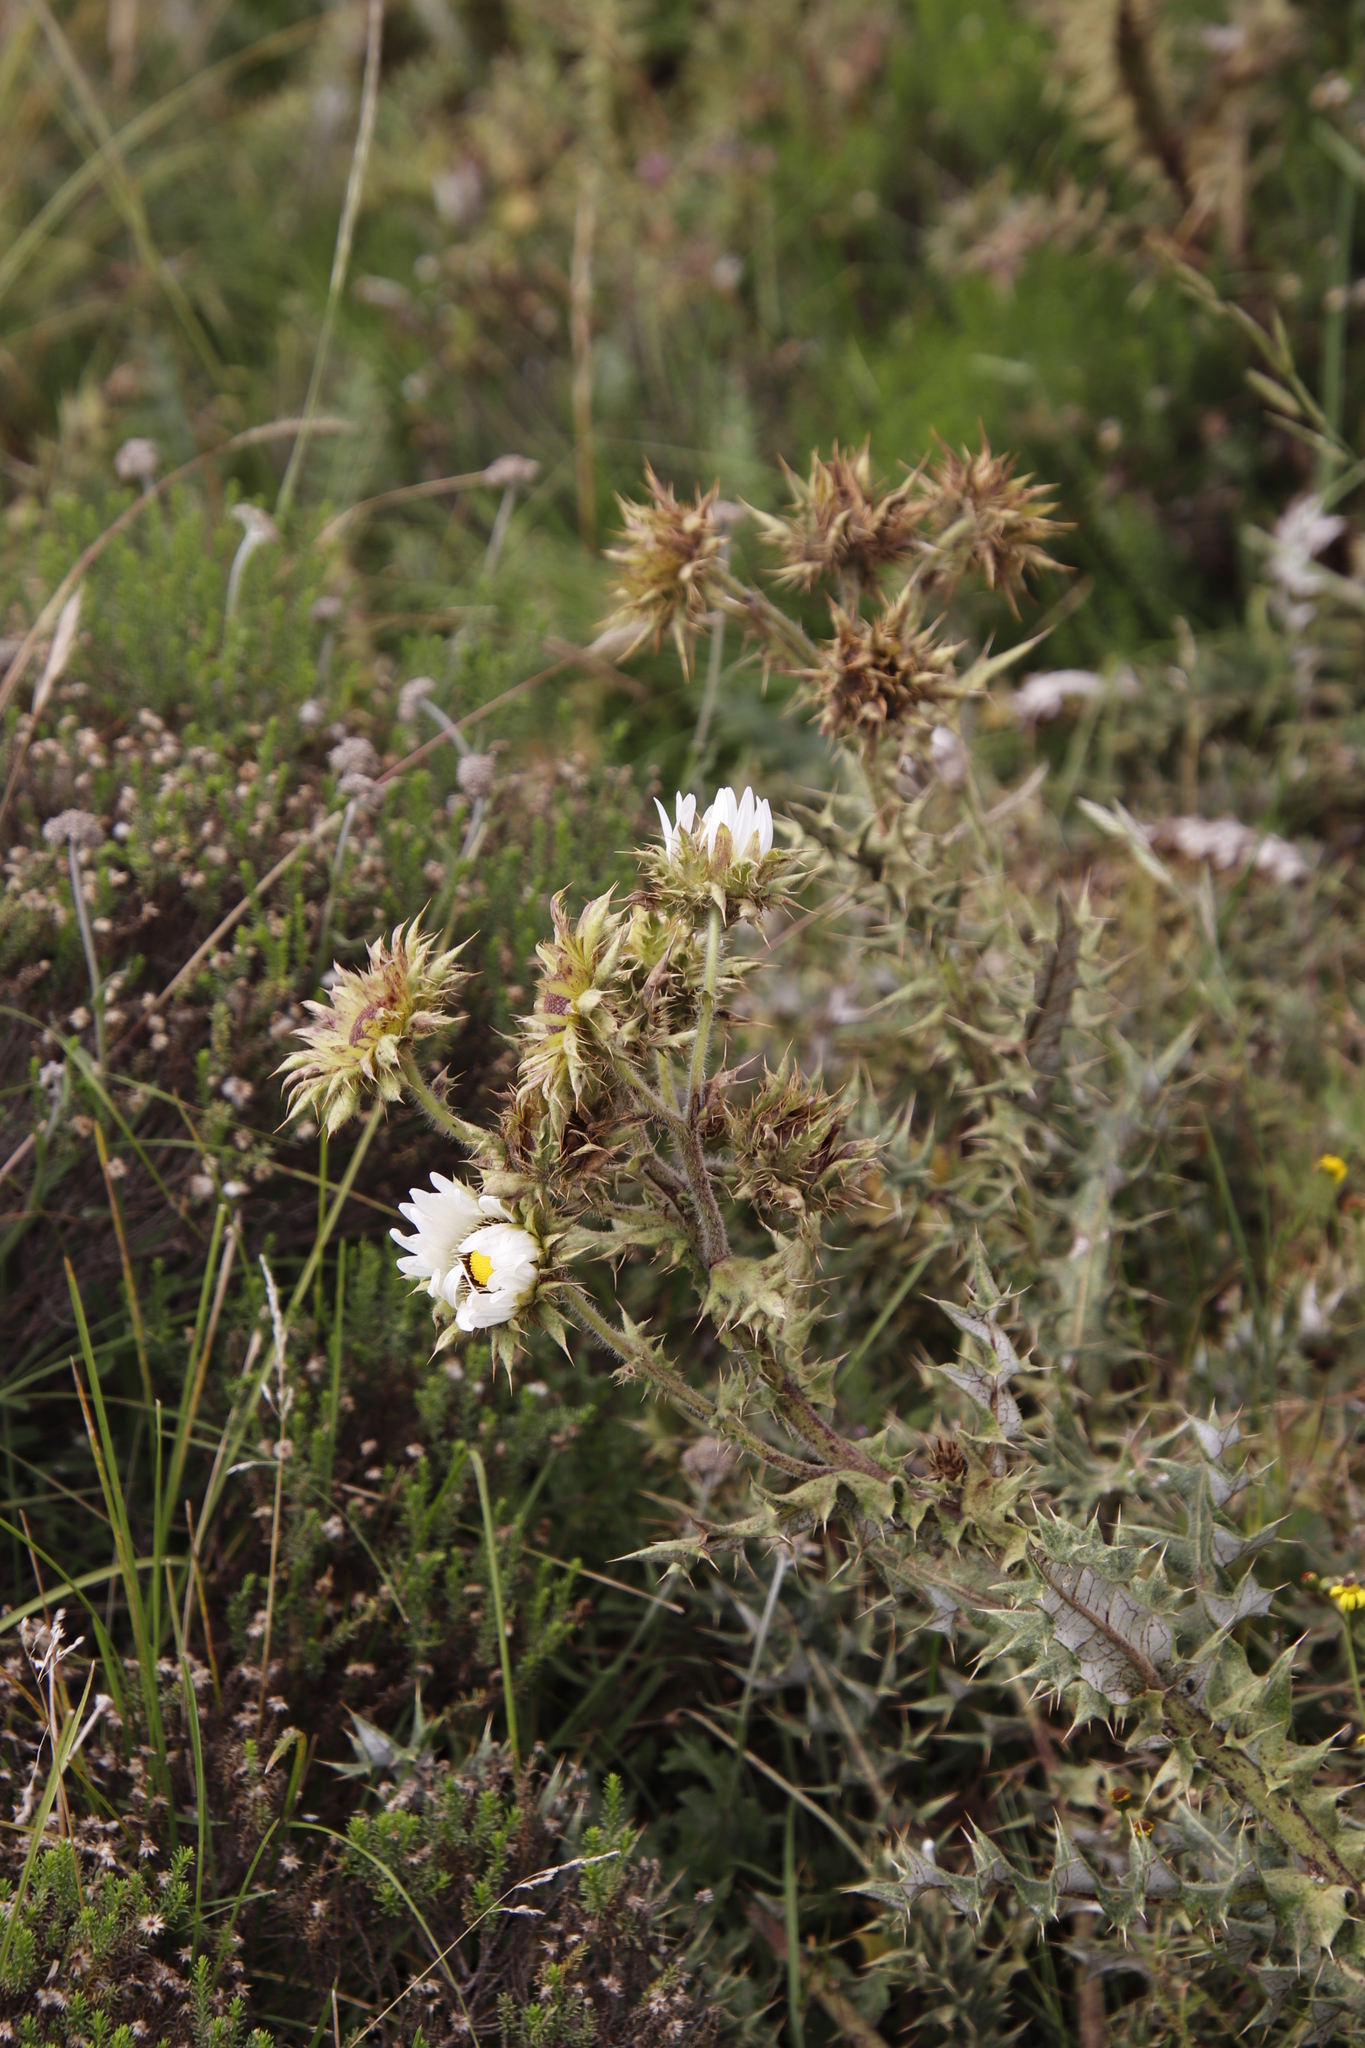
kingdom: Plantae
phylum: Tracheophyta
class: Magnoliopsida
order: Asterales
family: Asteraceae
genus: Berkheya
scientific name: Berkheya cirsiifolia
